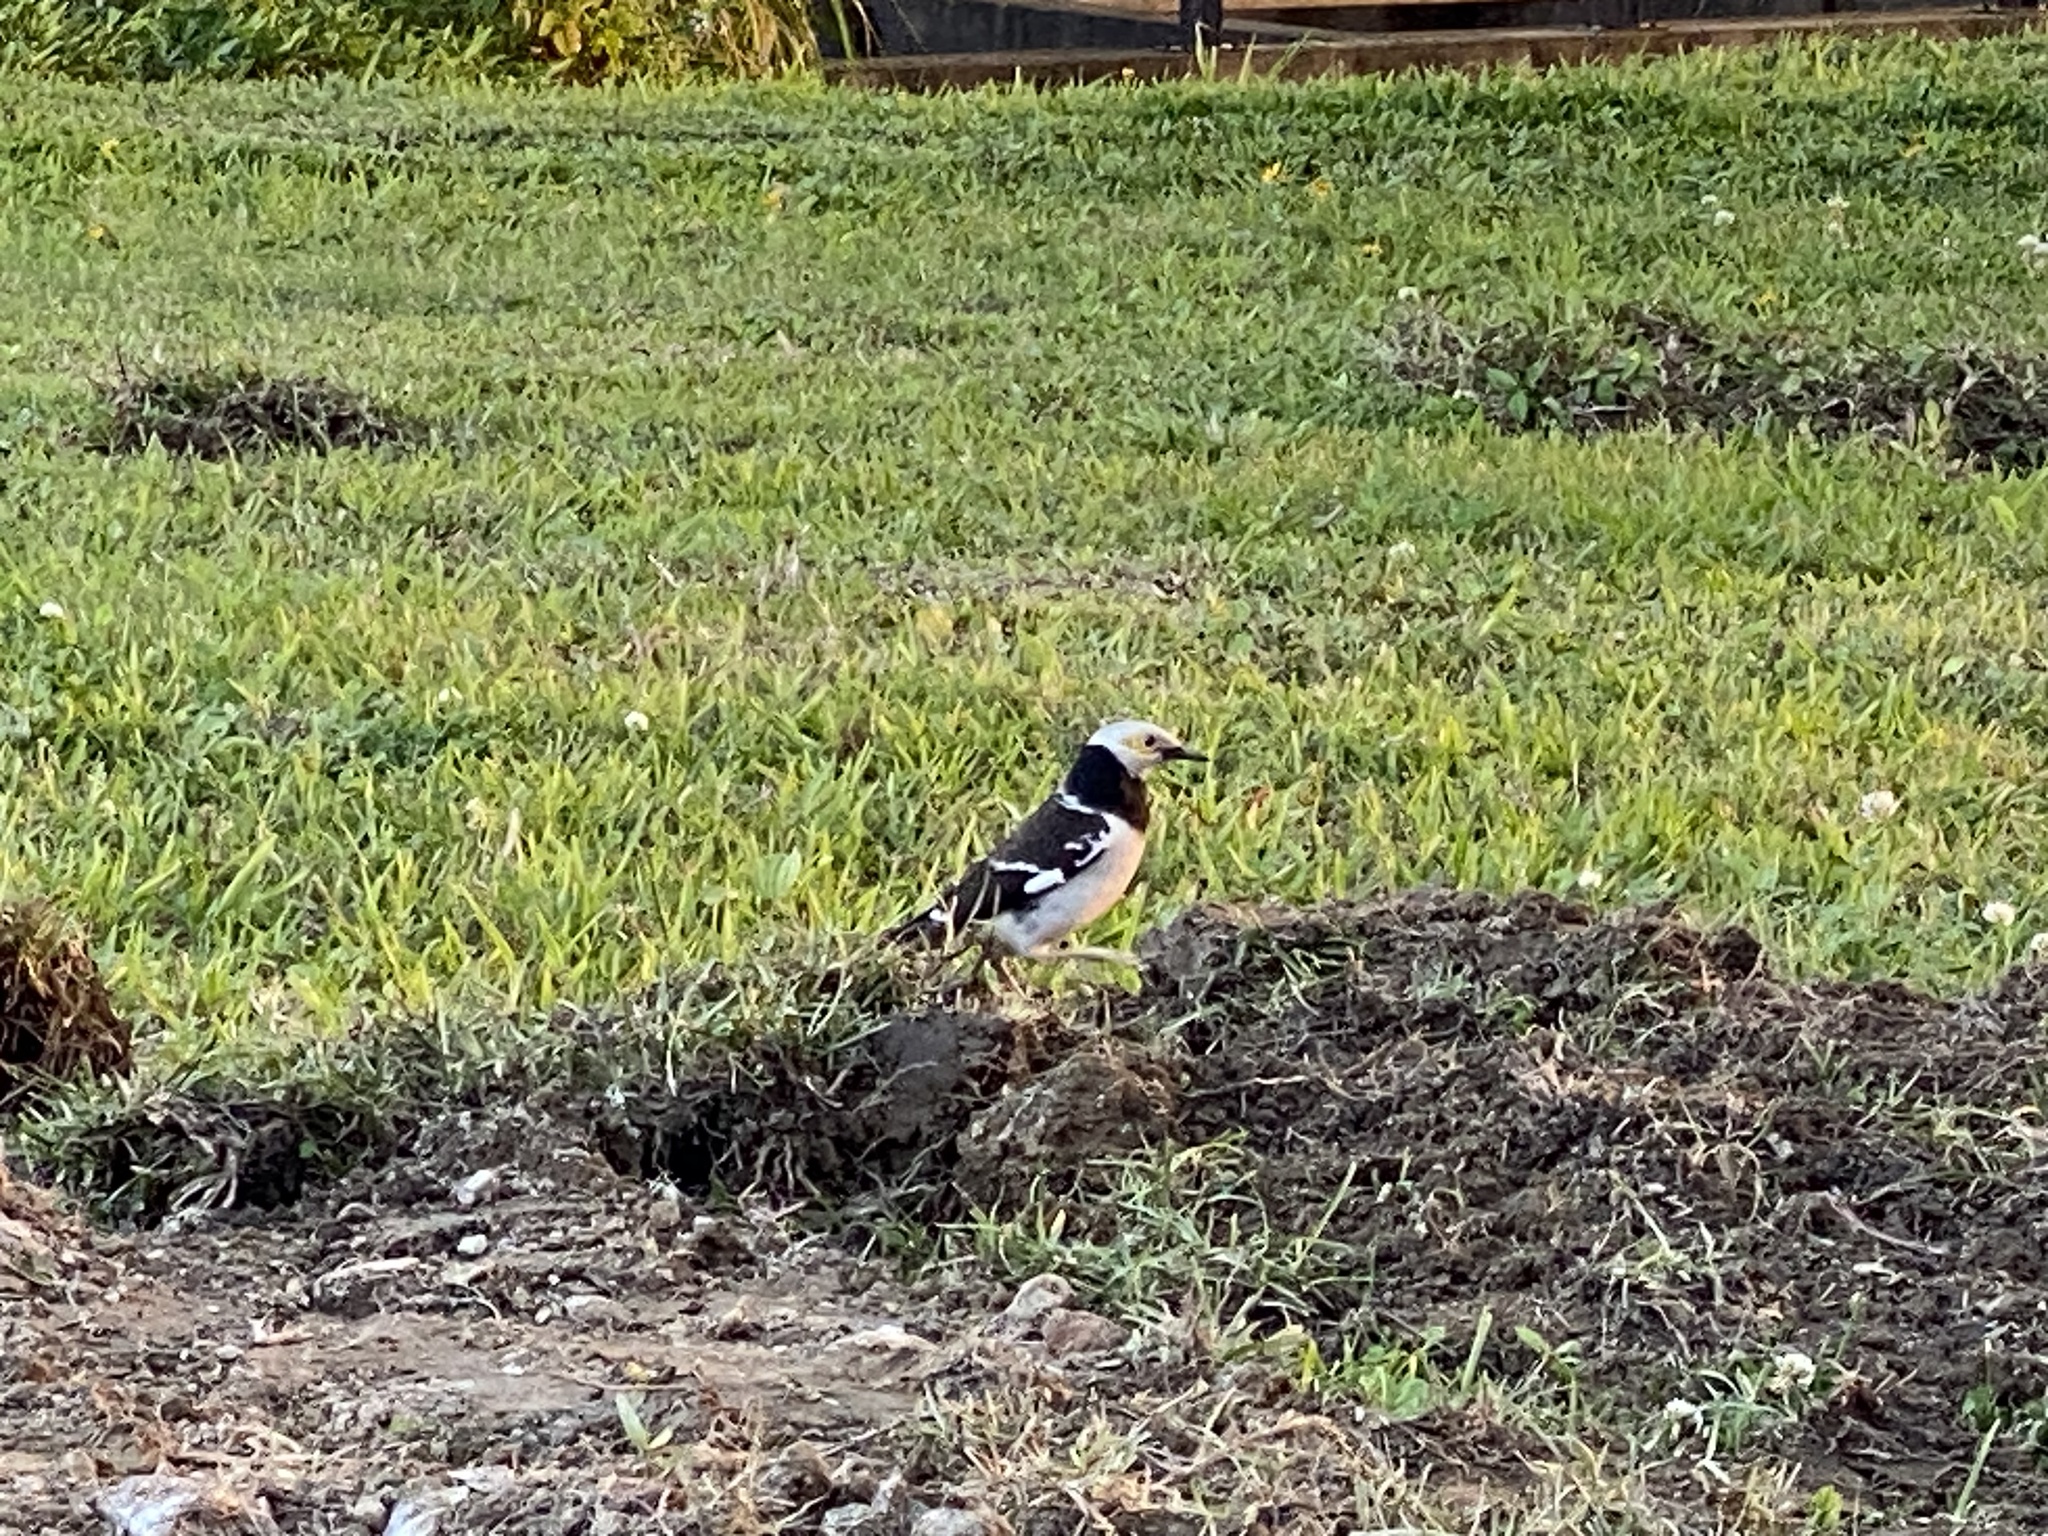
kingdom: Animalia
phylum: Chordata
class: Aves
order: Passeriformes
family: Sturnidae
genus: Gracupica
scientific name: Gracupica nigricollis
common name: Black-collared starling
